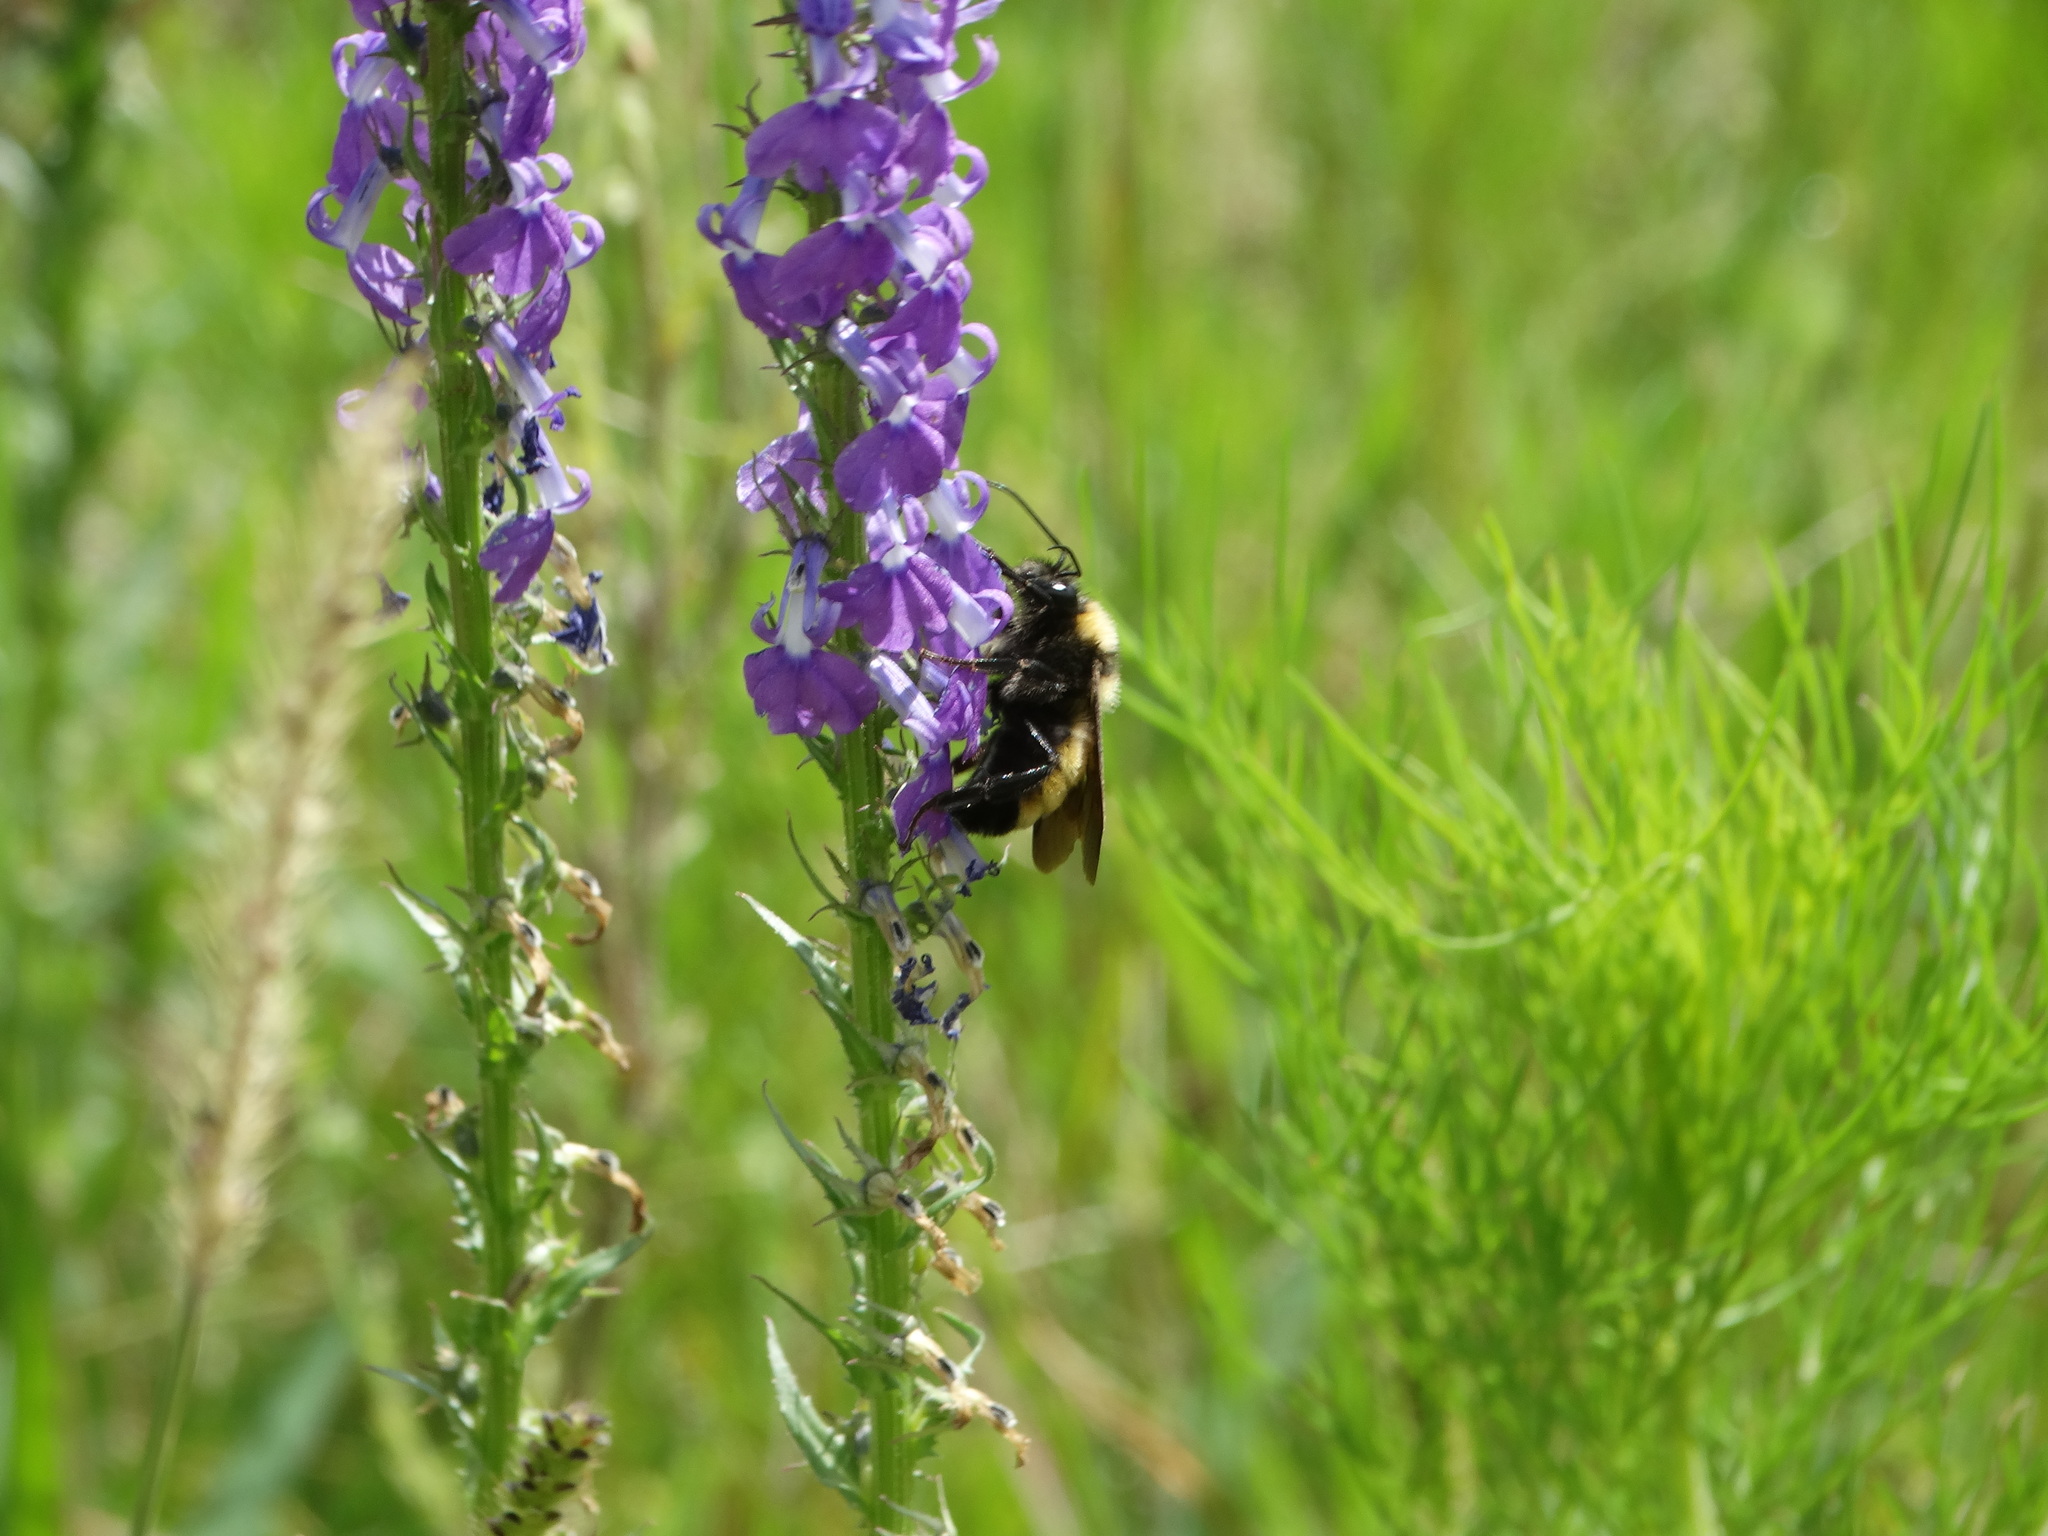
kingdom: Animalia
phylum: Arthropoda
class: Insecta
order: Hymenoptera
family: Apidae
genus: Bombus
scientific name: Bombus sonorus
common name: Sonoran bumble bee
